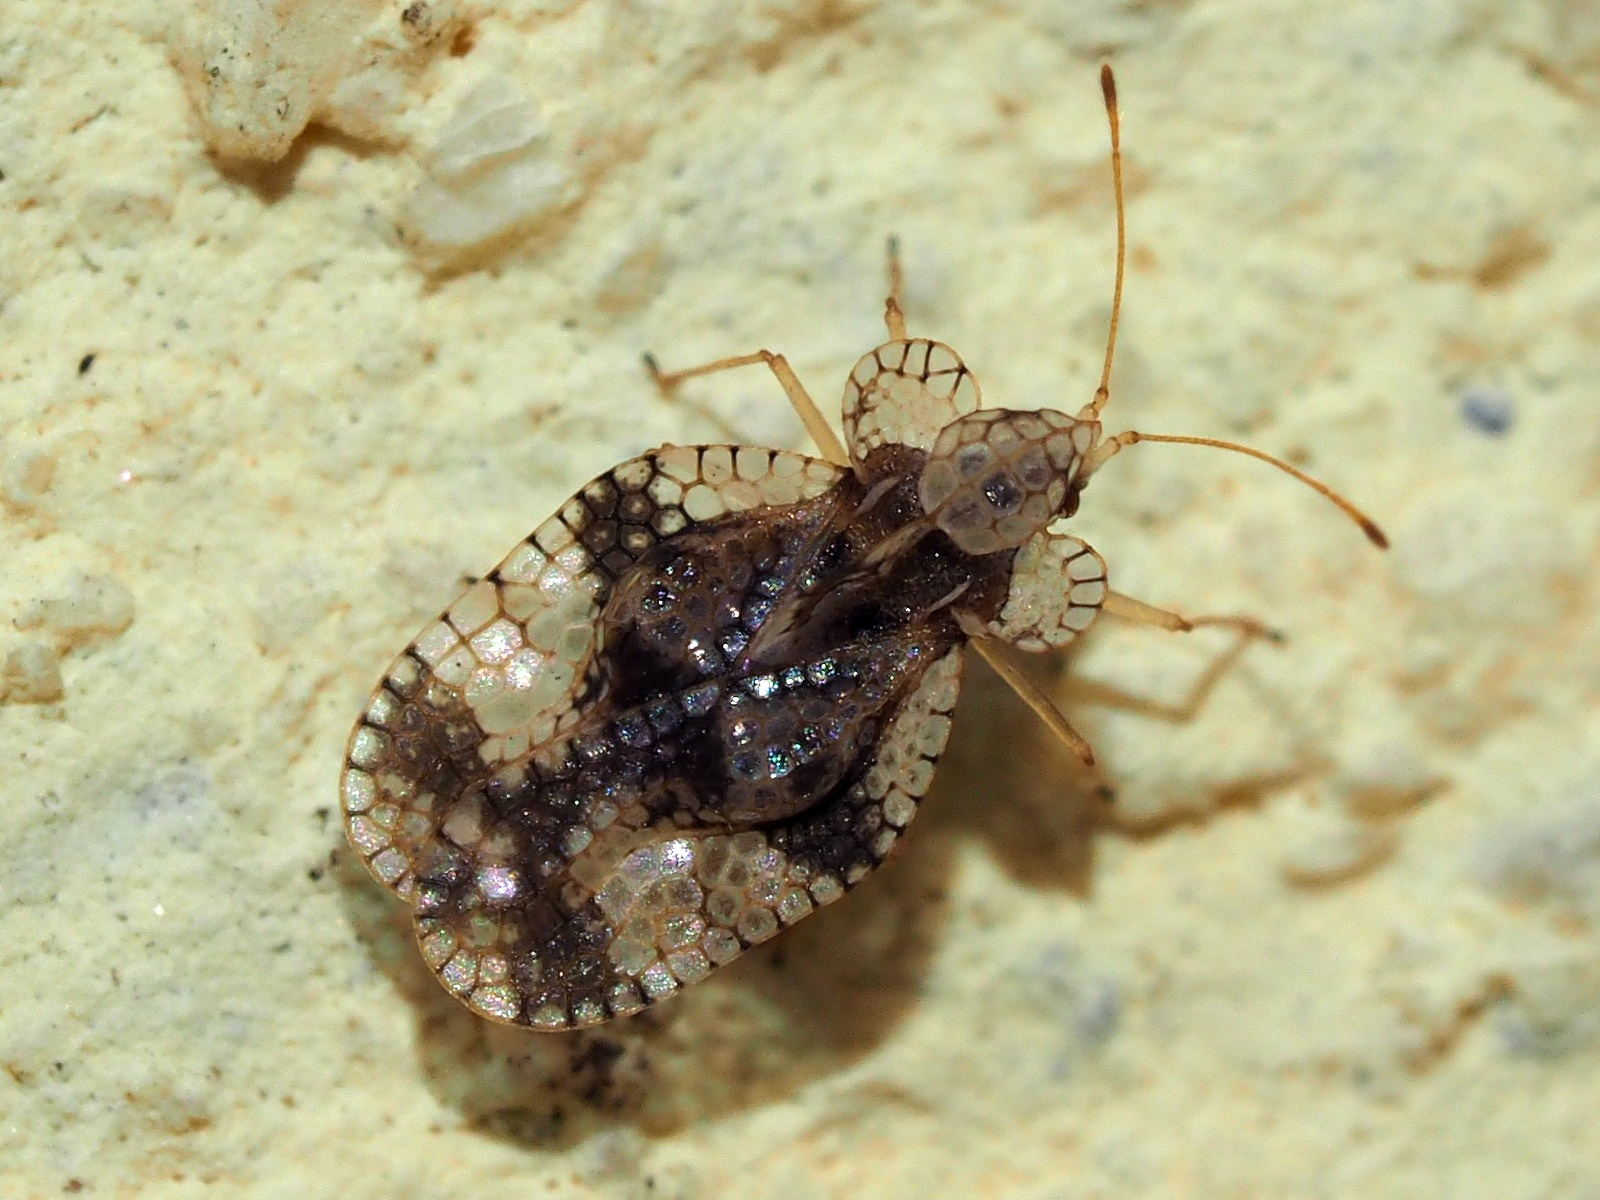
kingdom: Animalia
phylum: Arthropoda
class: Insecta
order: Hemiptera
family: Tingidae
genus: Stephanitis
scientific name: Stephanitis pyri
